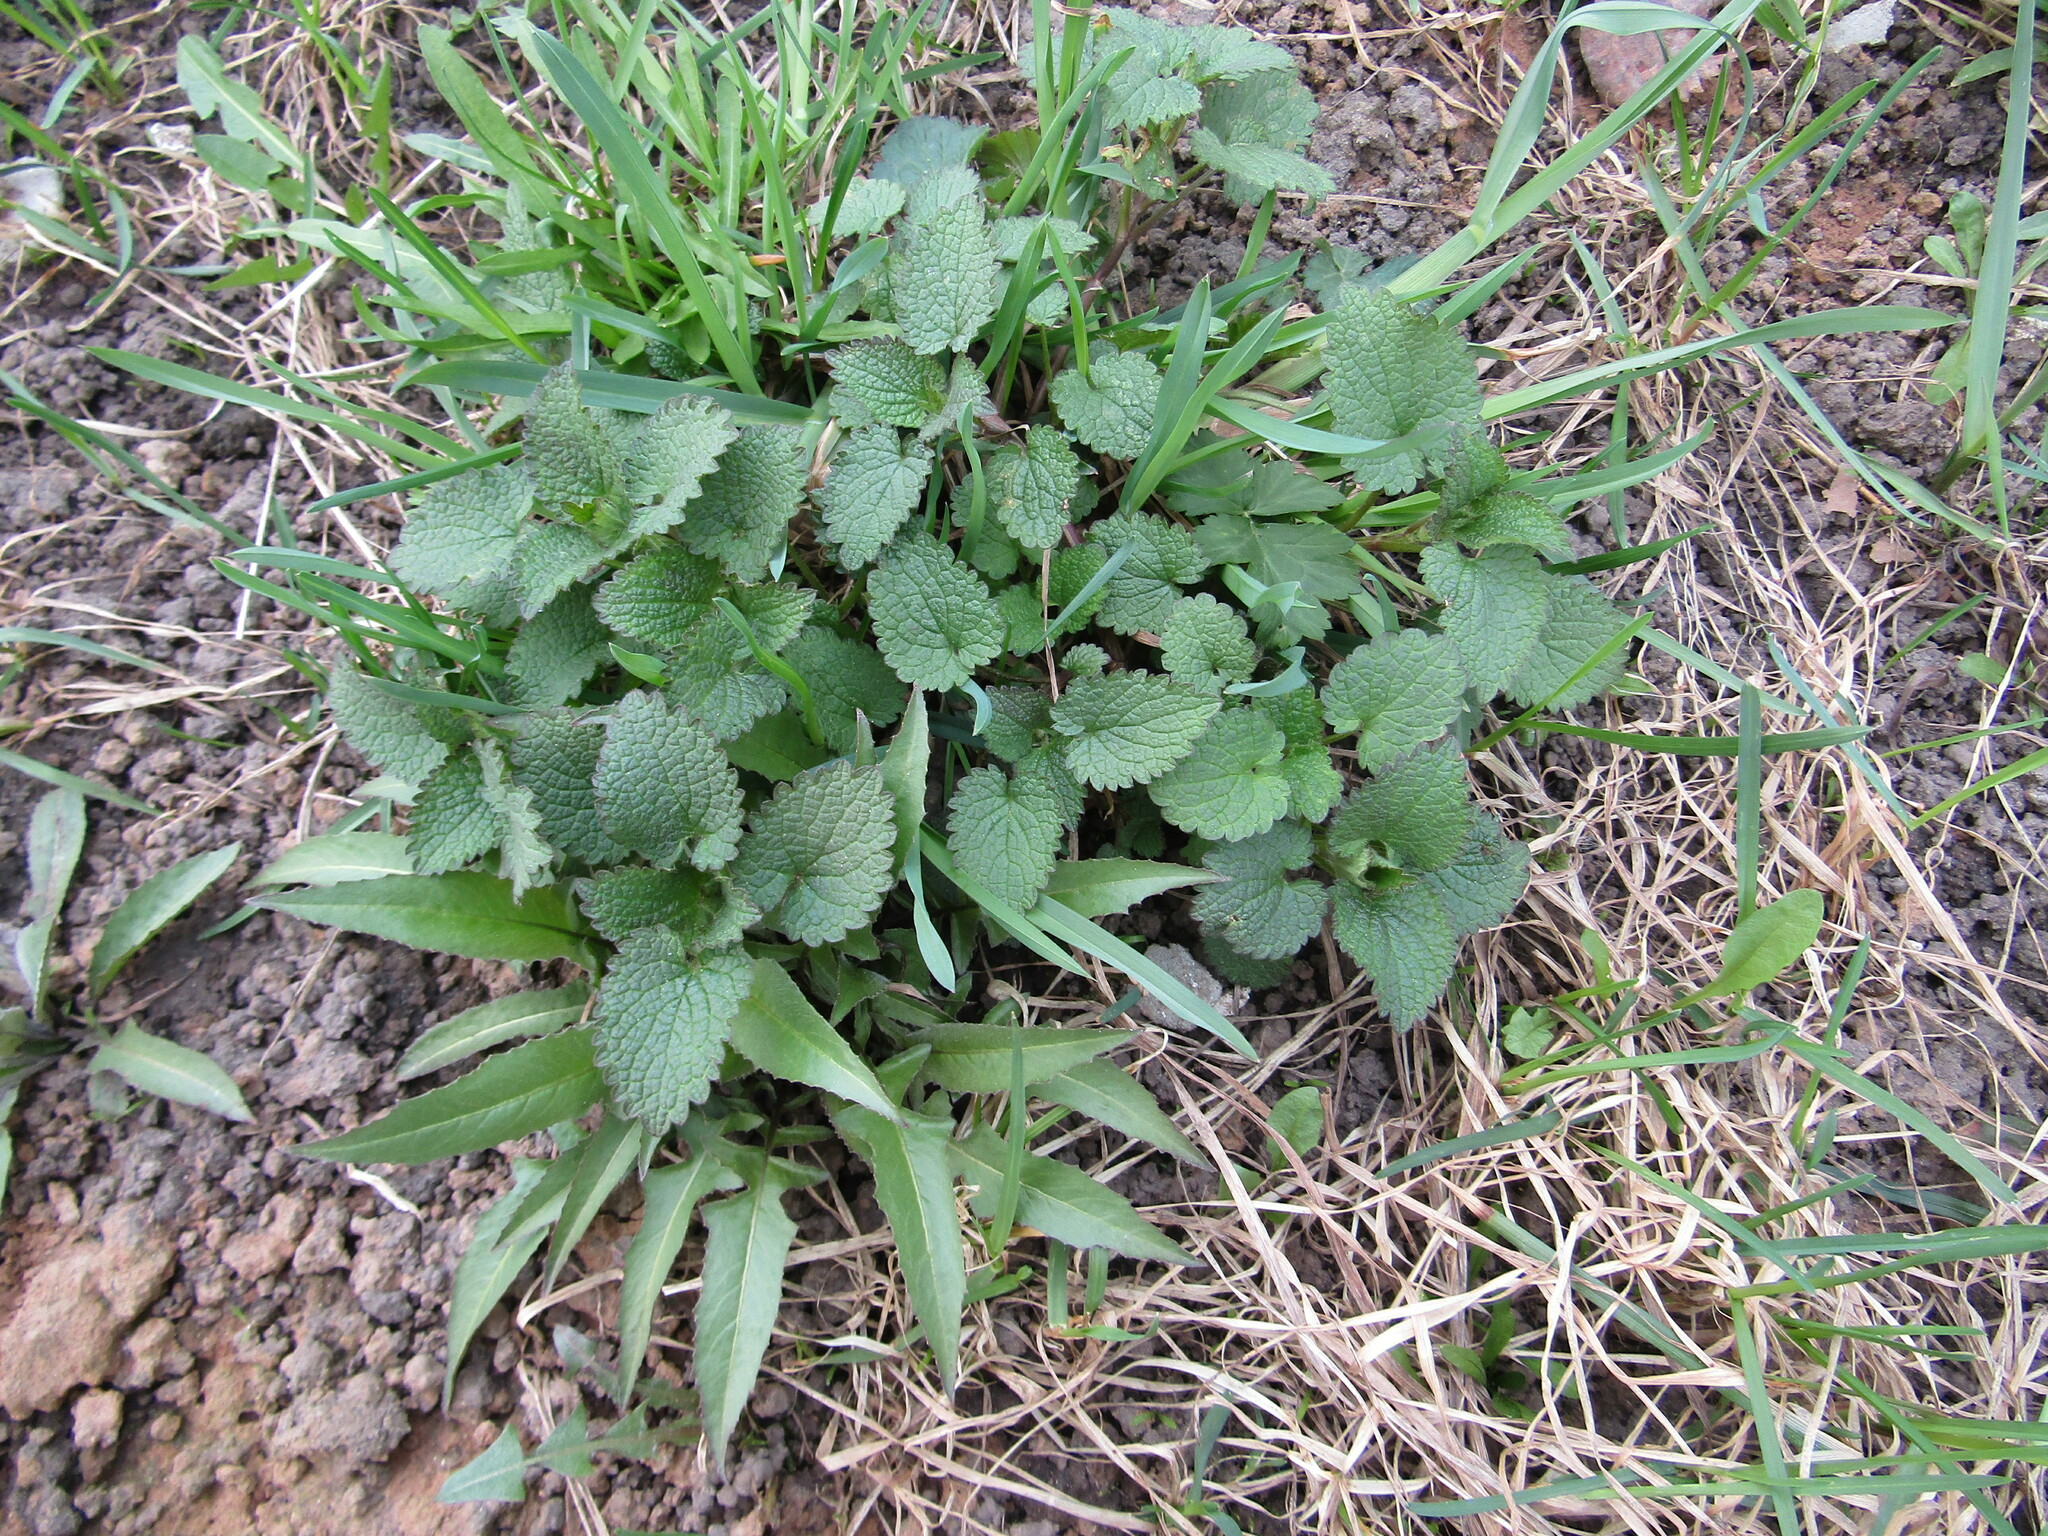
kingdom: Plantae
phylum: Tracheophyta
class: Magnoliopsida
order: Lamiales
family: Lamiaceae
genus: Lamium
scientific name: Lamium album
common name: White dead-nettle
